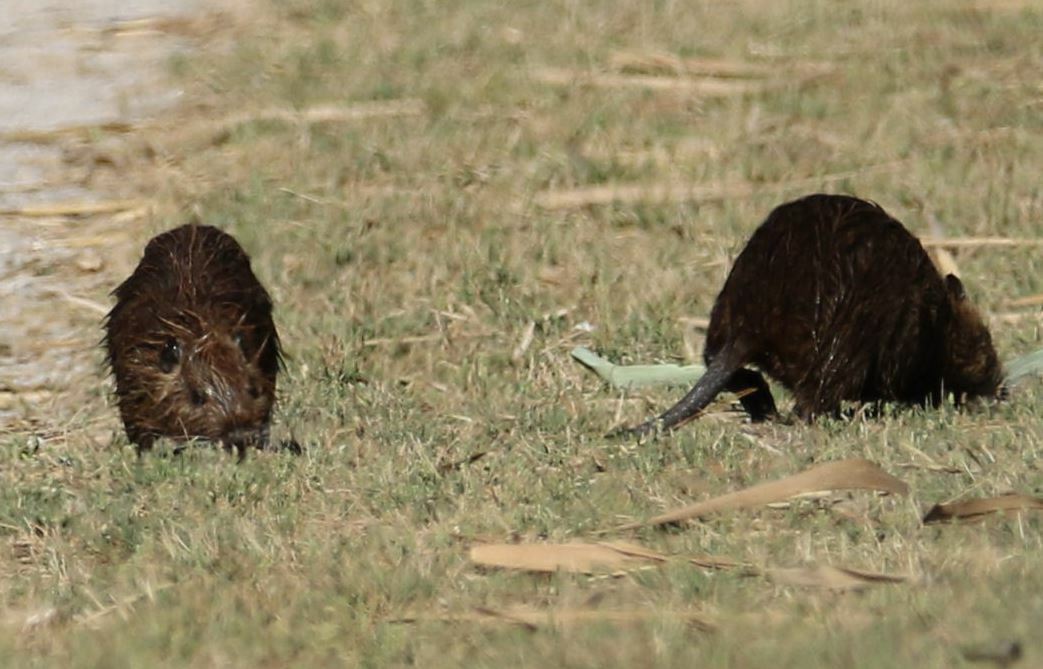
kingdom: Animalia
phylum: Chordata
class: Mammalia
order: Rodentia
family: Myocastoridae
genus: Myocastor
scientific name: Myocastor coypus
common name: Coypu
